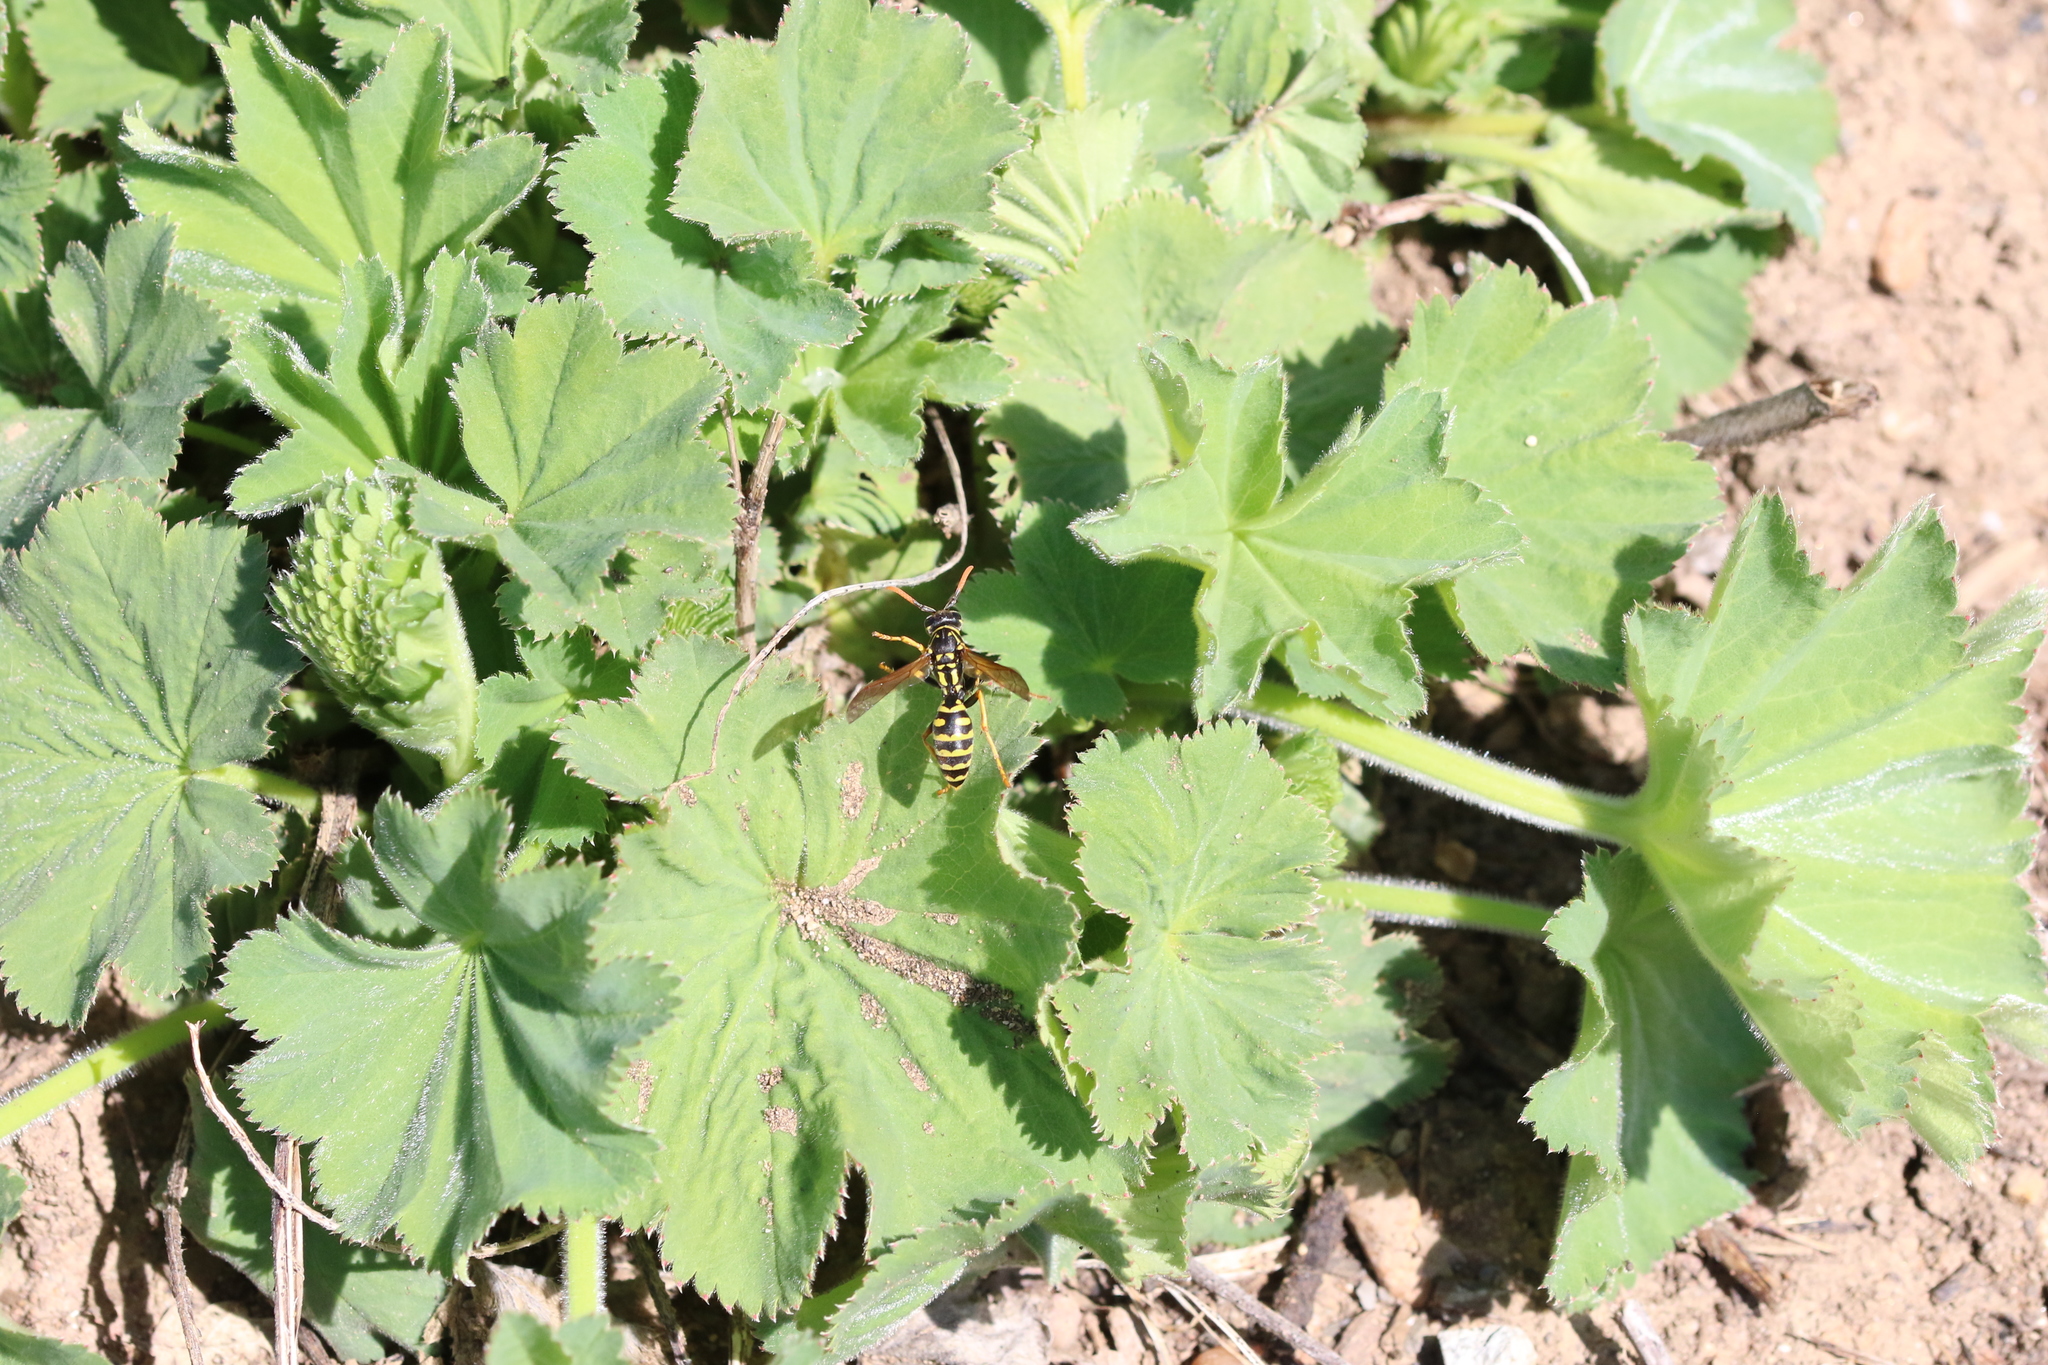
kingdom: Animalia
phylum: Arthropoda
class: Insecta
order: Hymenoptera
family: Eumenidae
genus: Polistes
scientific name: Polistes dominula
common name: Paper wasp
